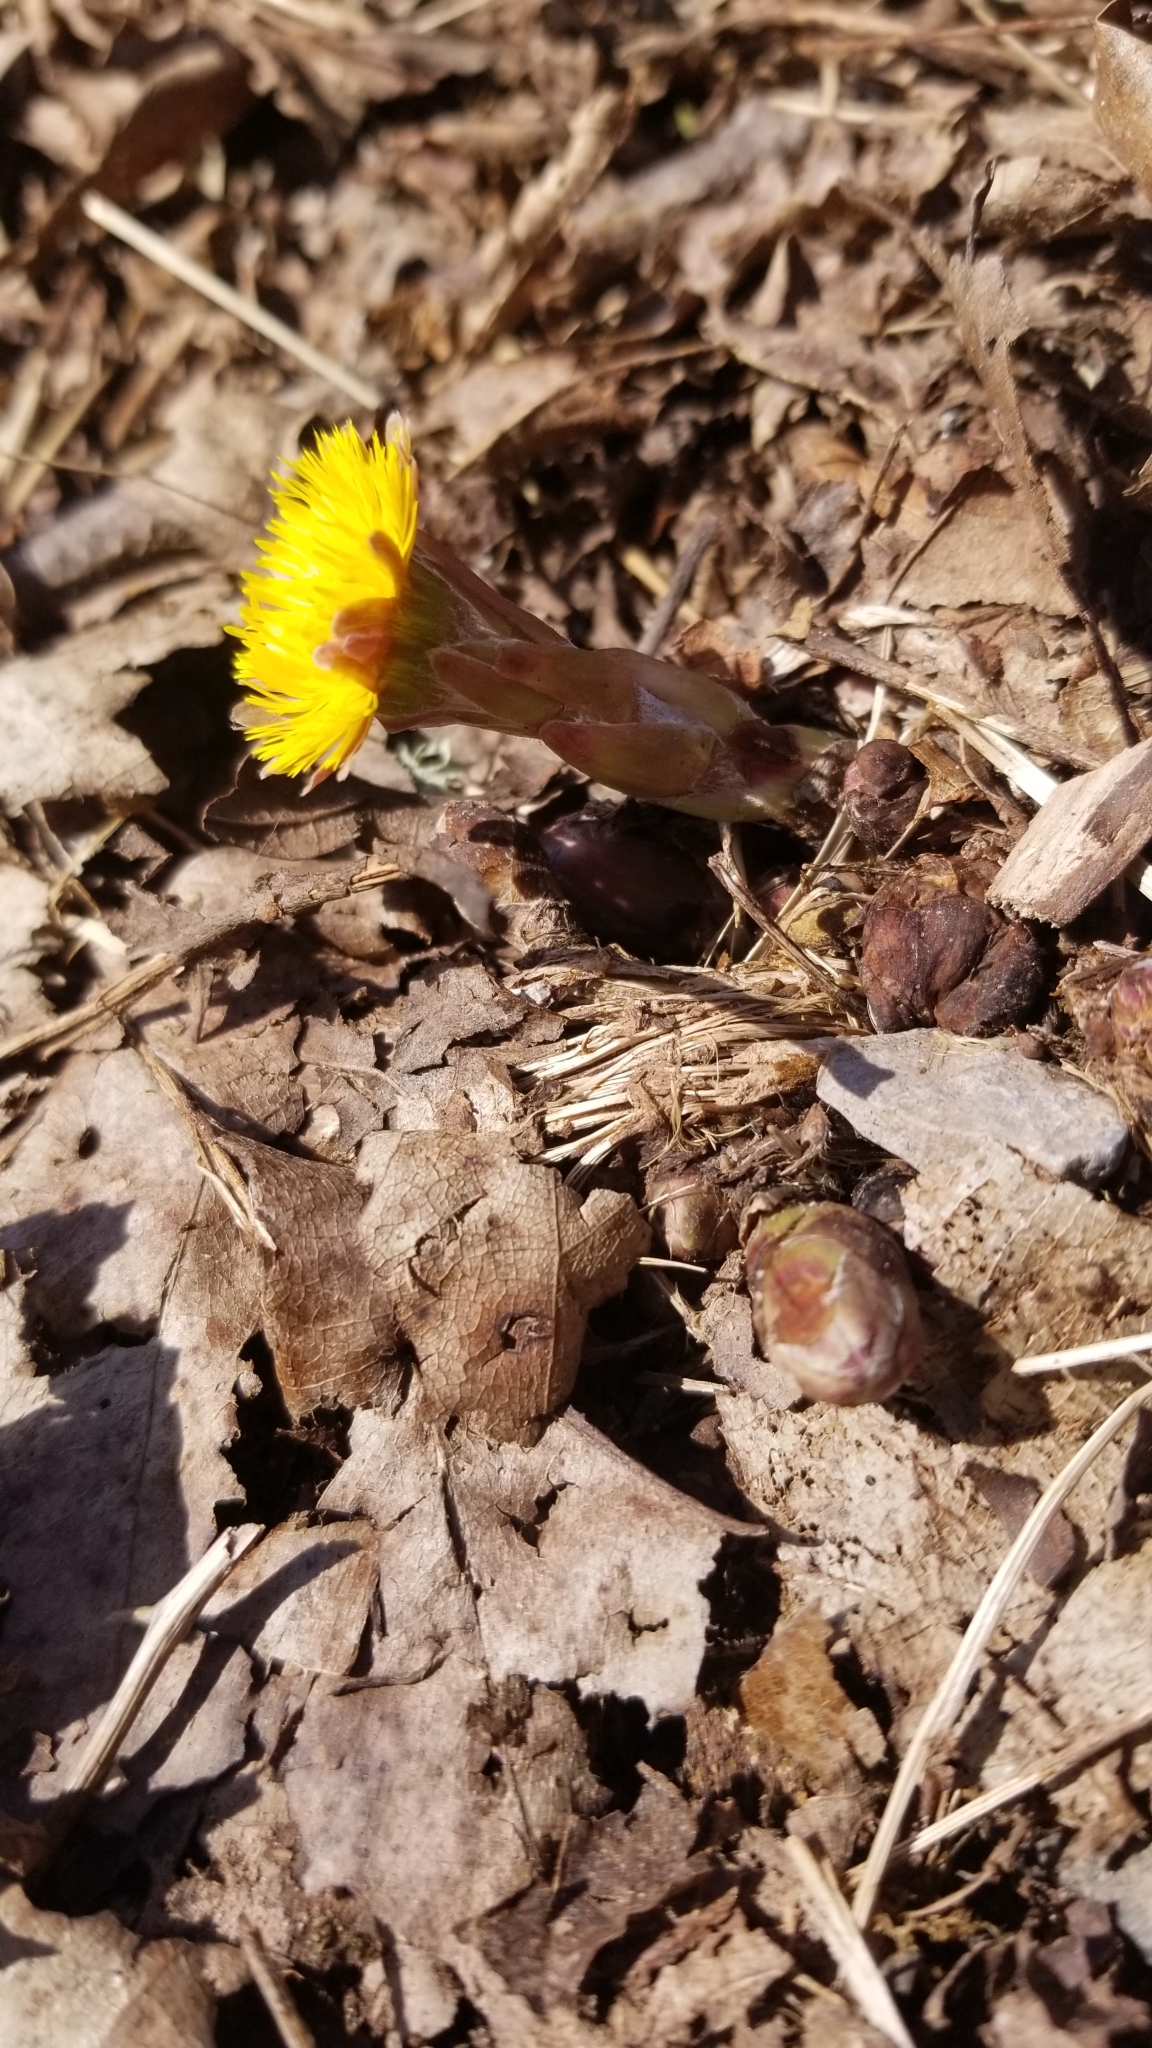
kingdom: Plantae
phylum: Tracheophyta
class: Magnoliopsida
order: Asterales
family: Asteraceae
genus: Tussilago
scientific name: Tussilago farfara
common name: Coltsfoot
